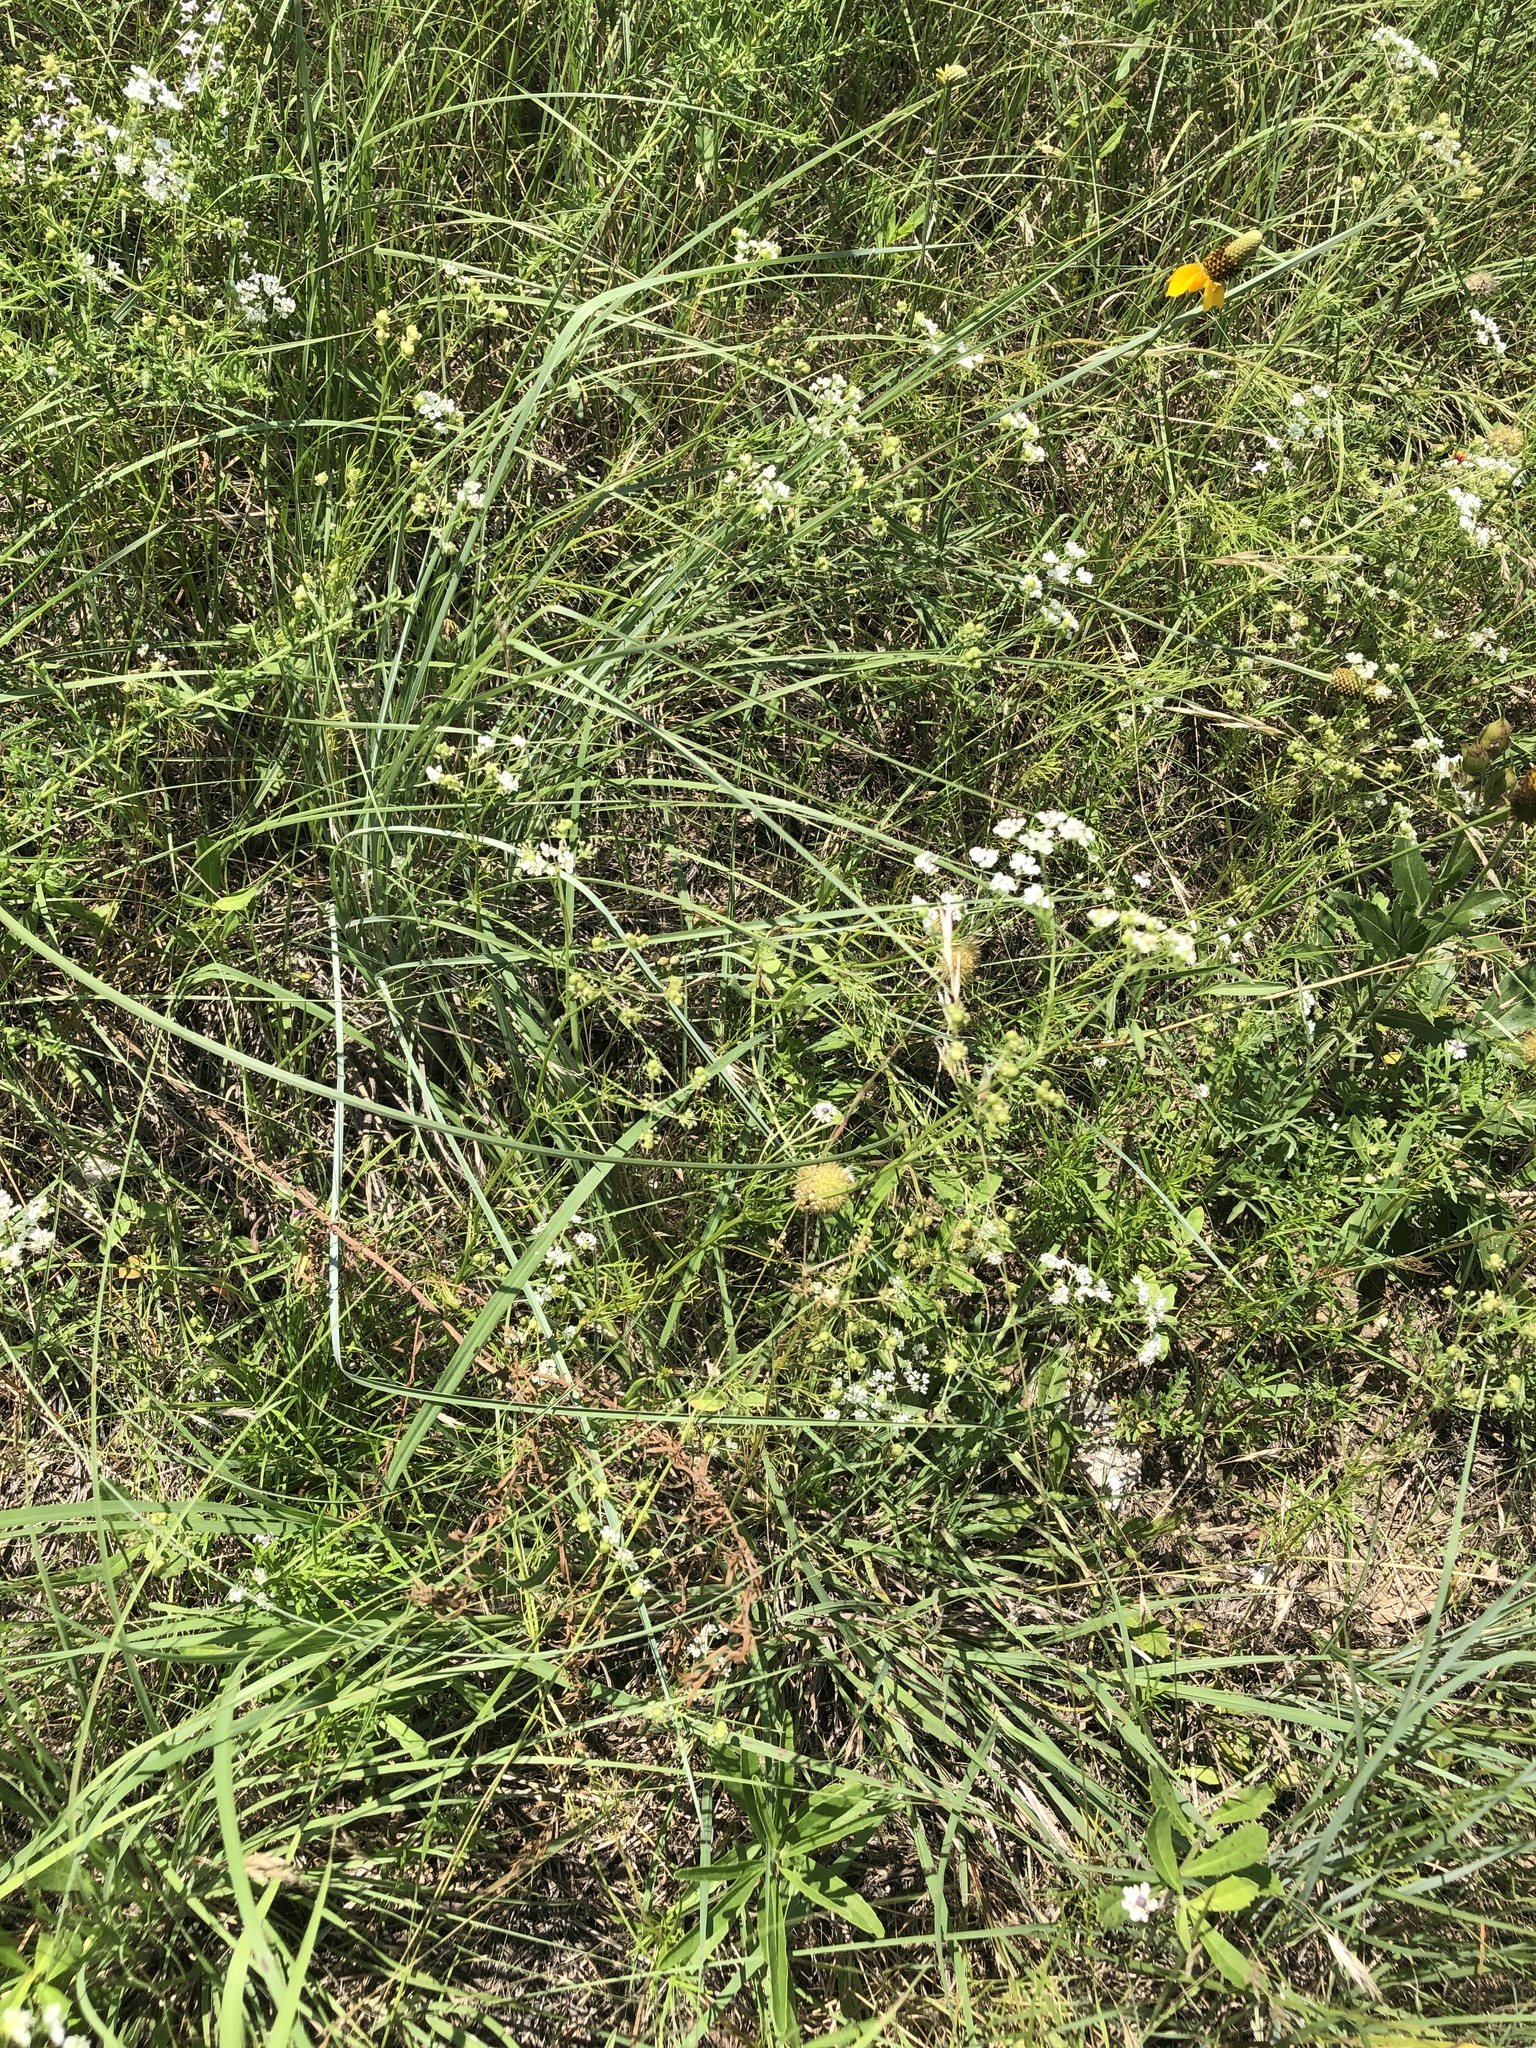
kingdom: Plantae
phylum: Tracheophyta
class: Magnoliopsida
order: Apiales
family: Apiaceae
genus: Atrema
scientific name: Atrema americanum
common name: Prairie-bishop
